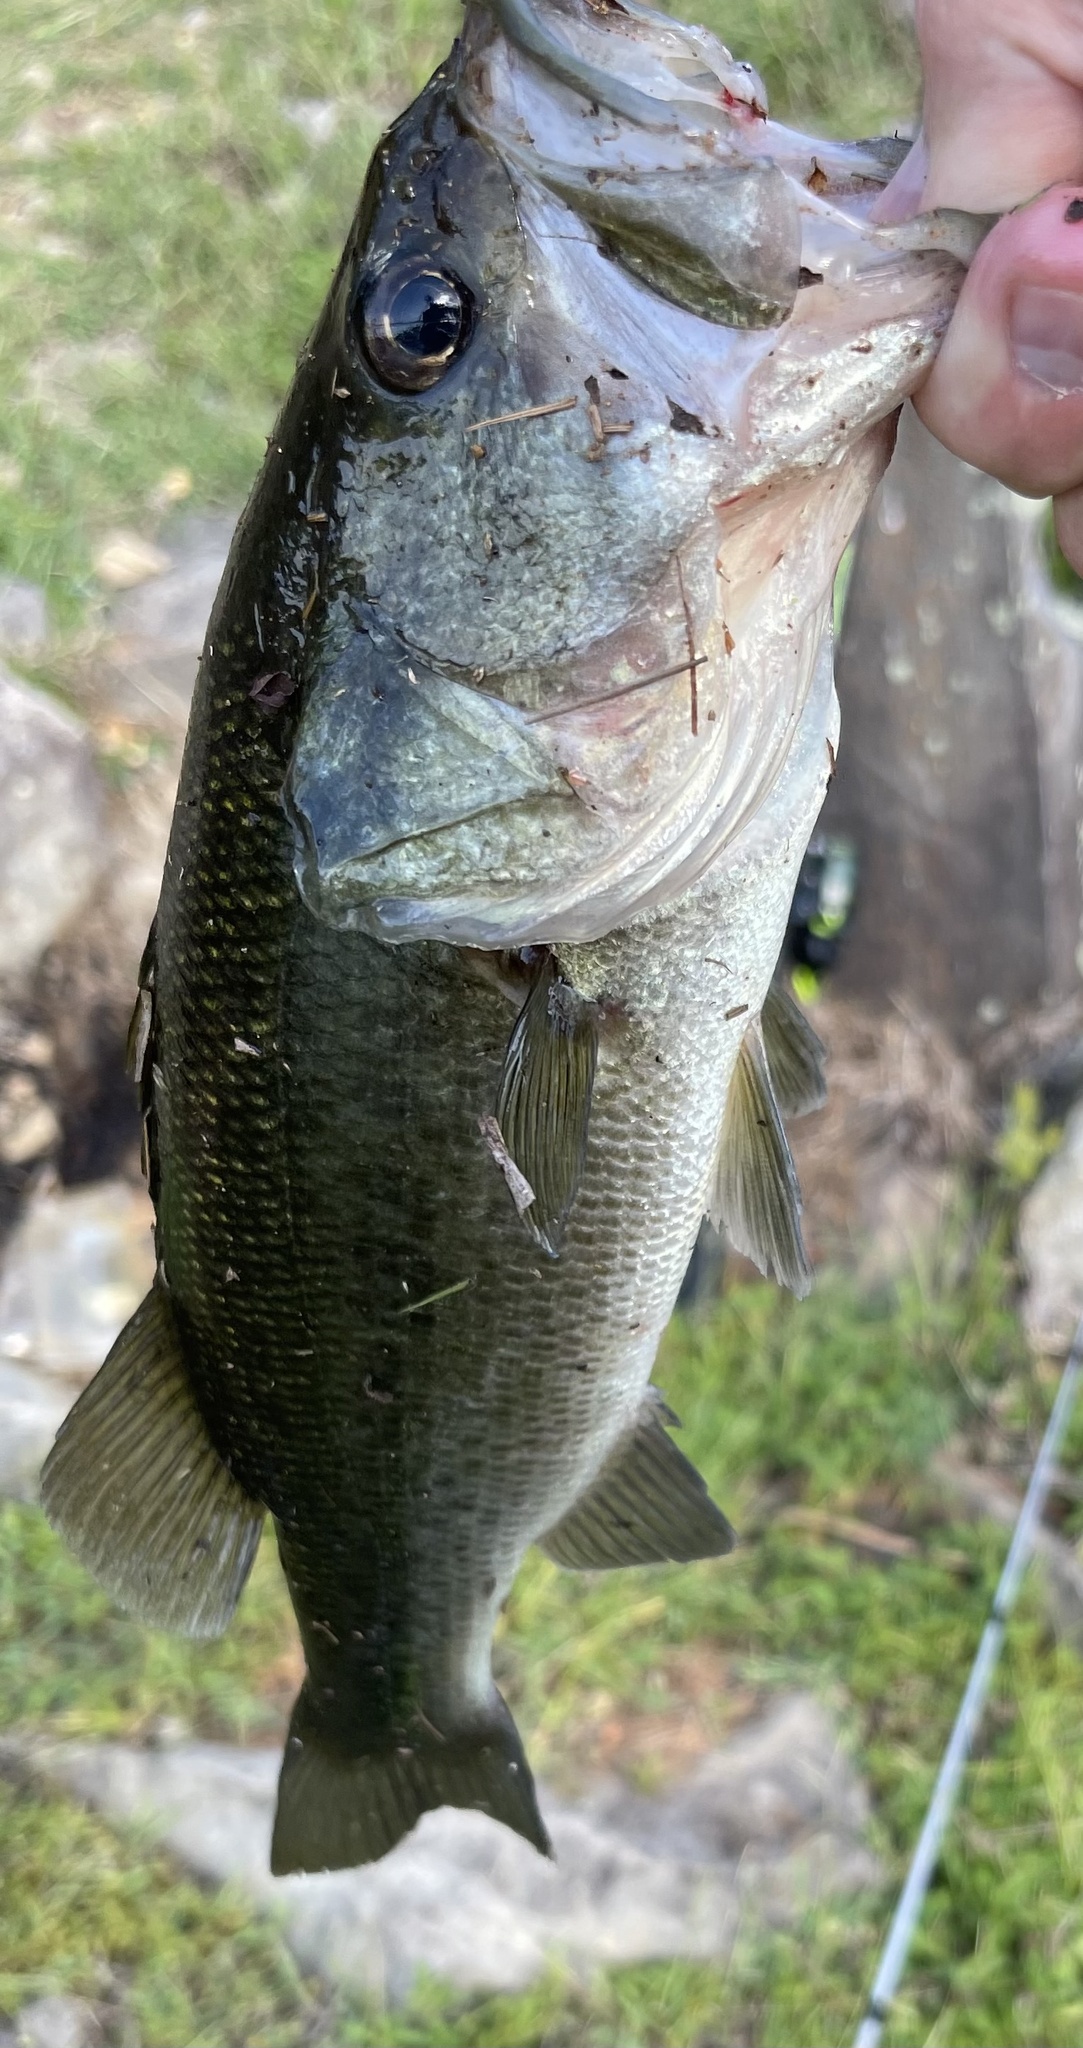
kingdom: Animalia
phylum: Chordata
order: Perciformes
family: Centrarchidae
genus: Micropterus
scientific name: Micropterus
